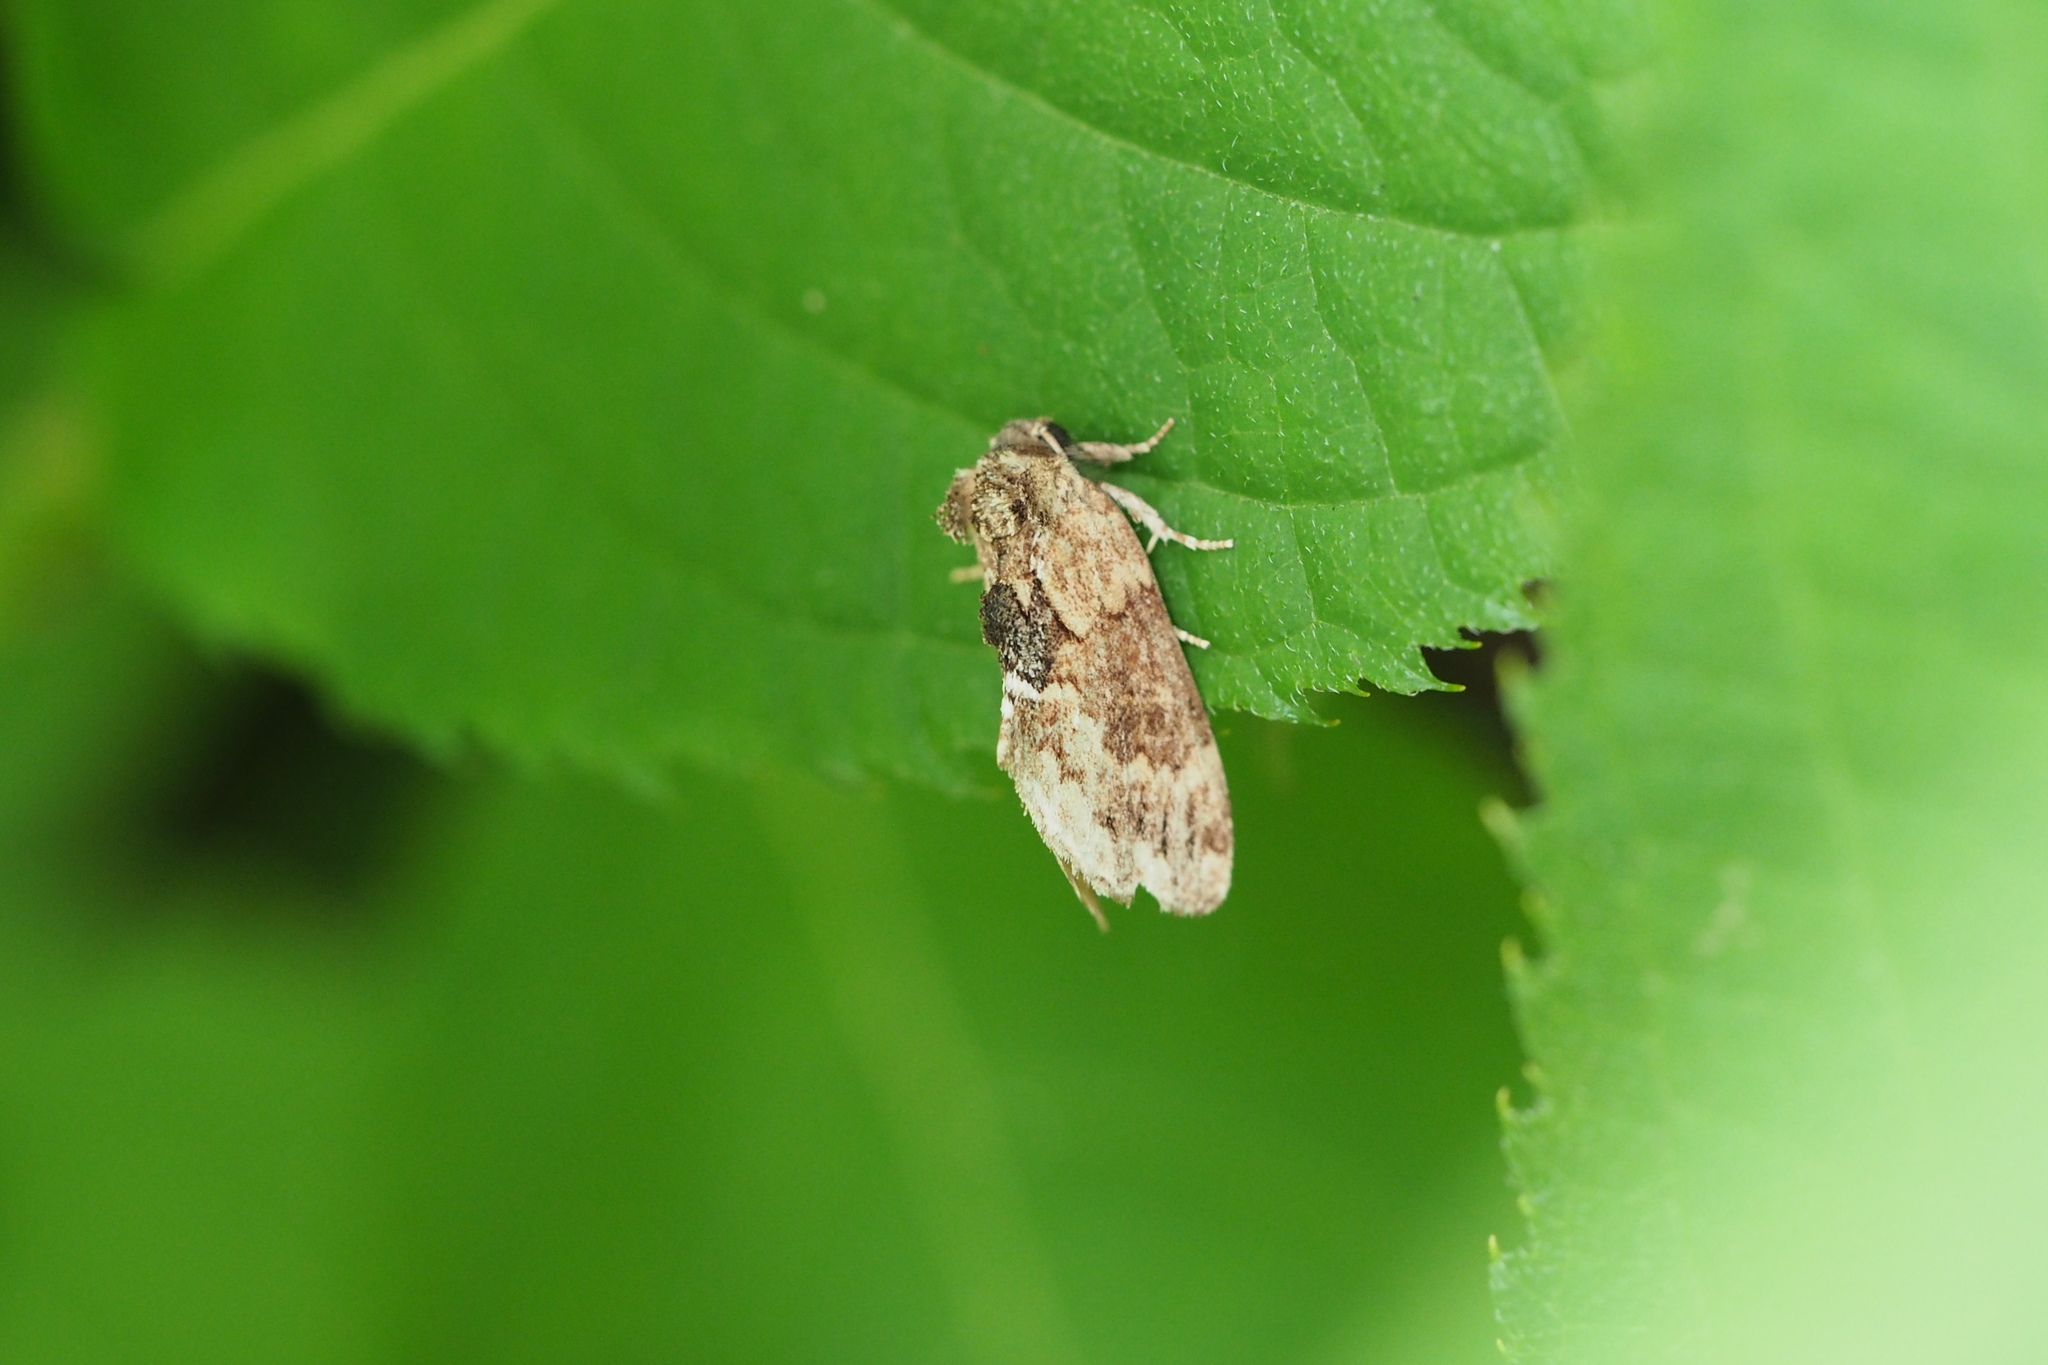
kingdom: Animalia
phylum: Arthropoda
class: Insecta
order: Lepidoptera
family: Notodontidae
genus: Lophontosia
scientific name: Lophontosia
